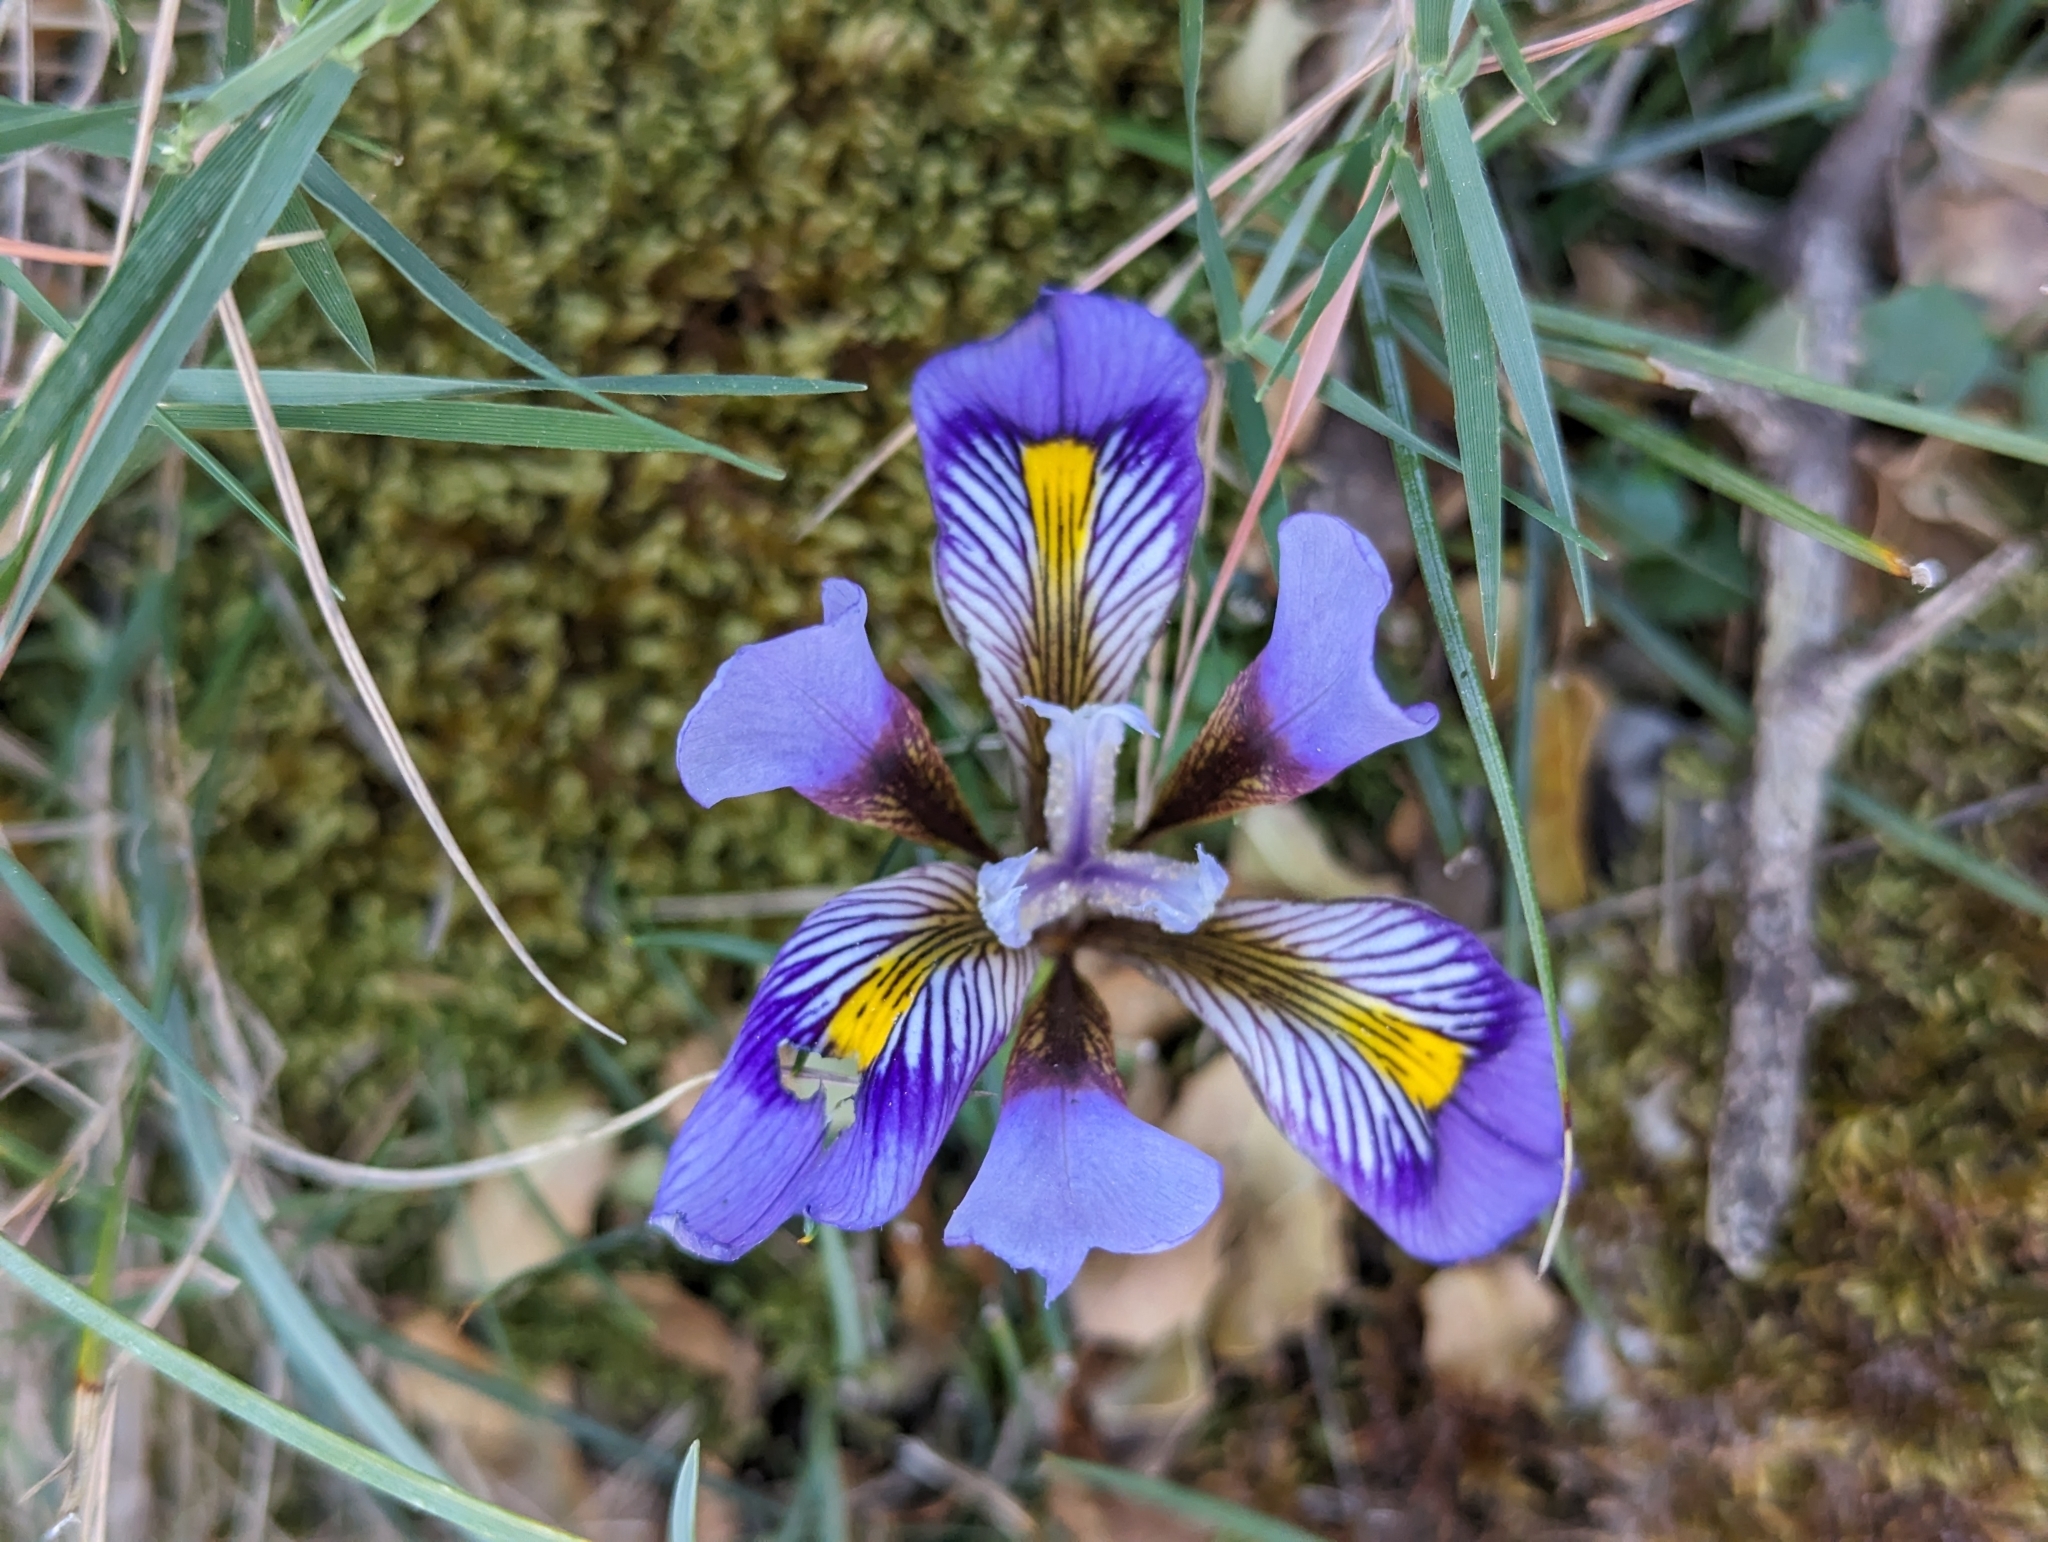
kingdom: Plantae
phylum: Tracheophyta
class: Liliopsida
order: Asparagales
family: Iridaceae
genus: Iris
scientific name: Iris unguicularis
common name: Algerian iris
